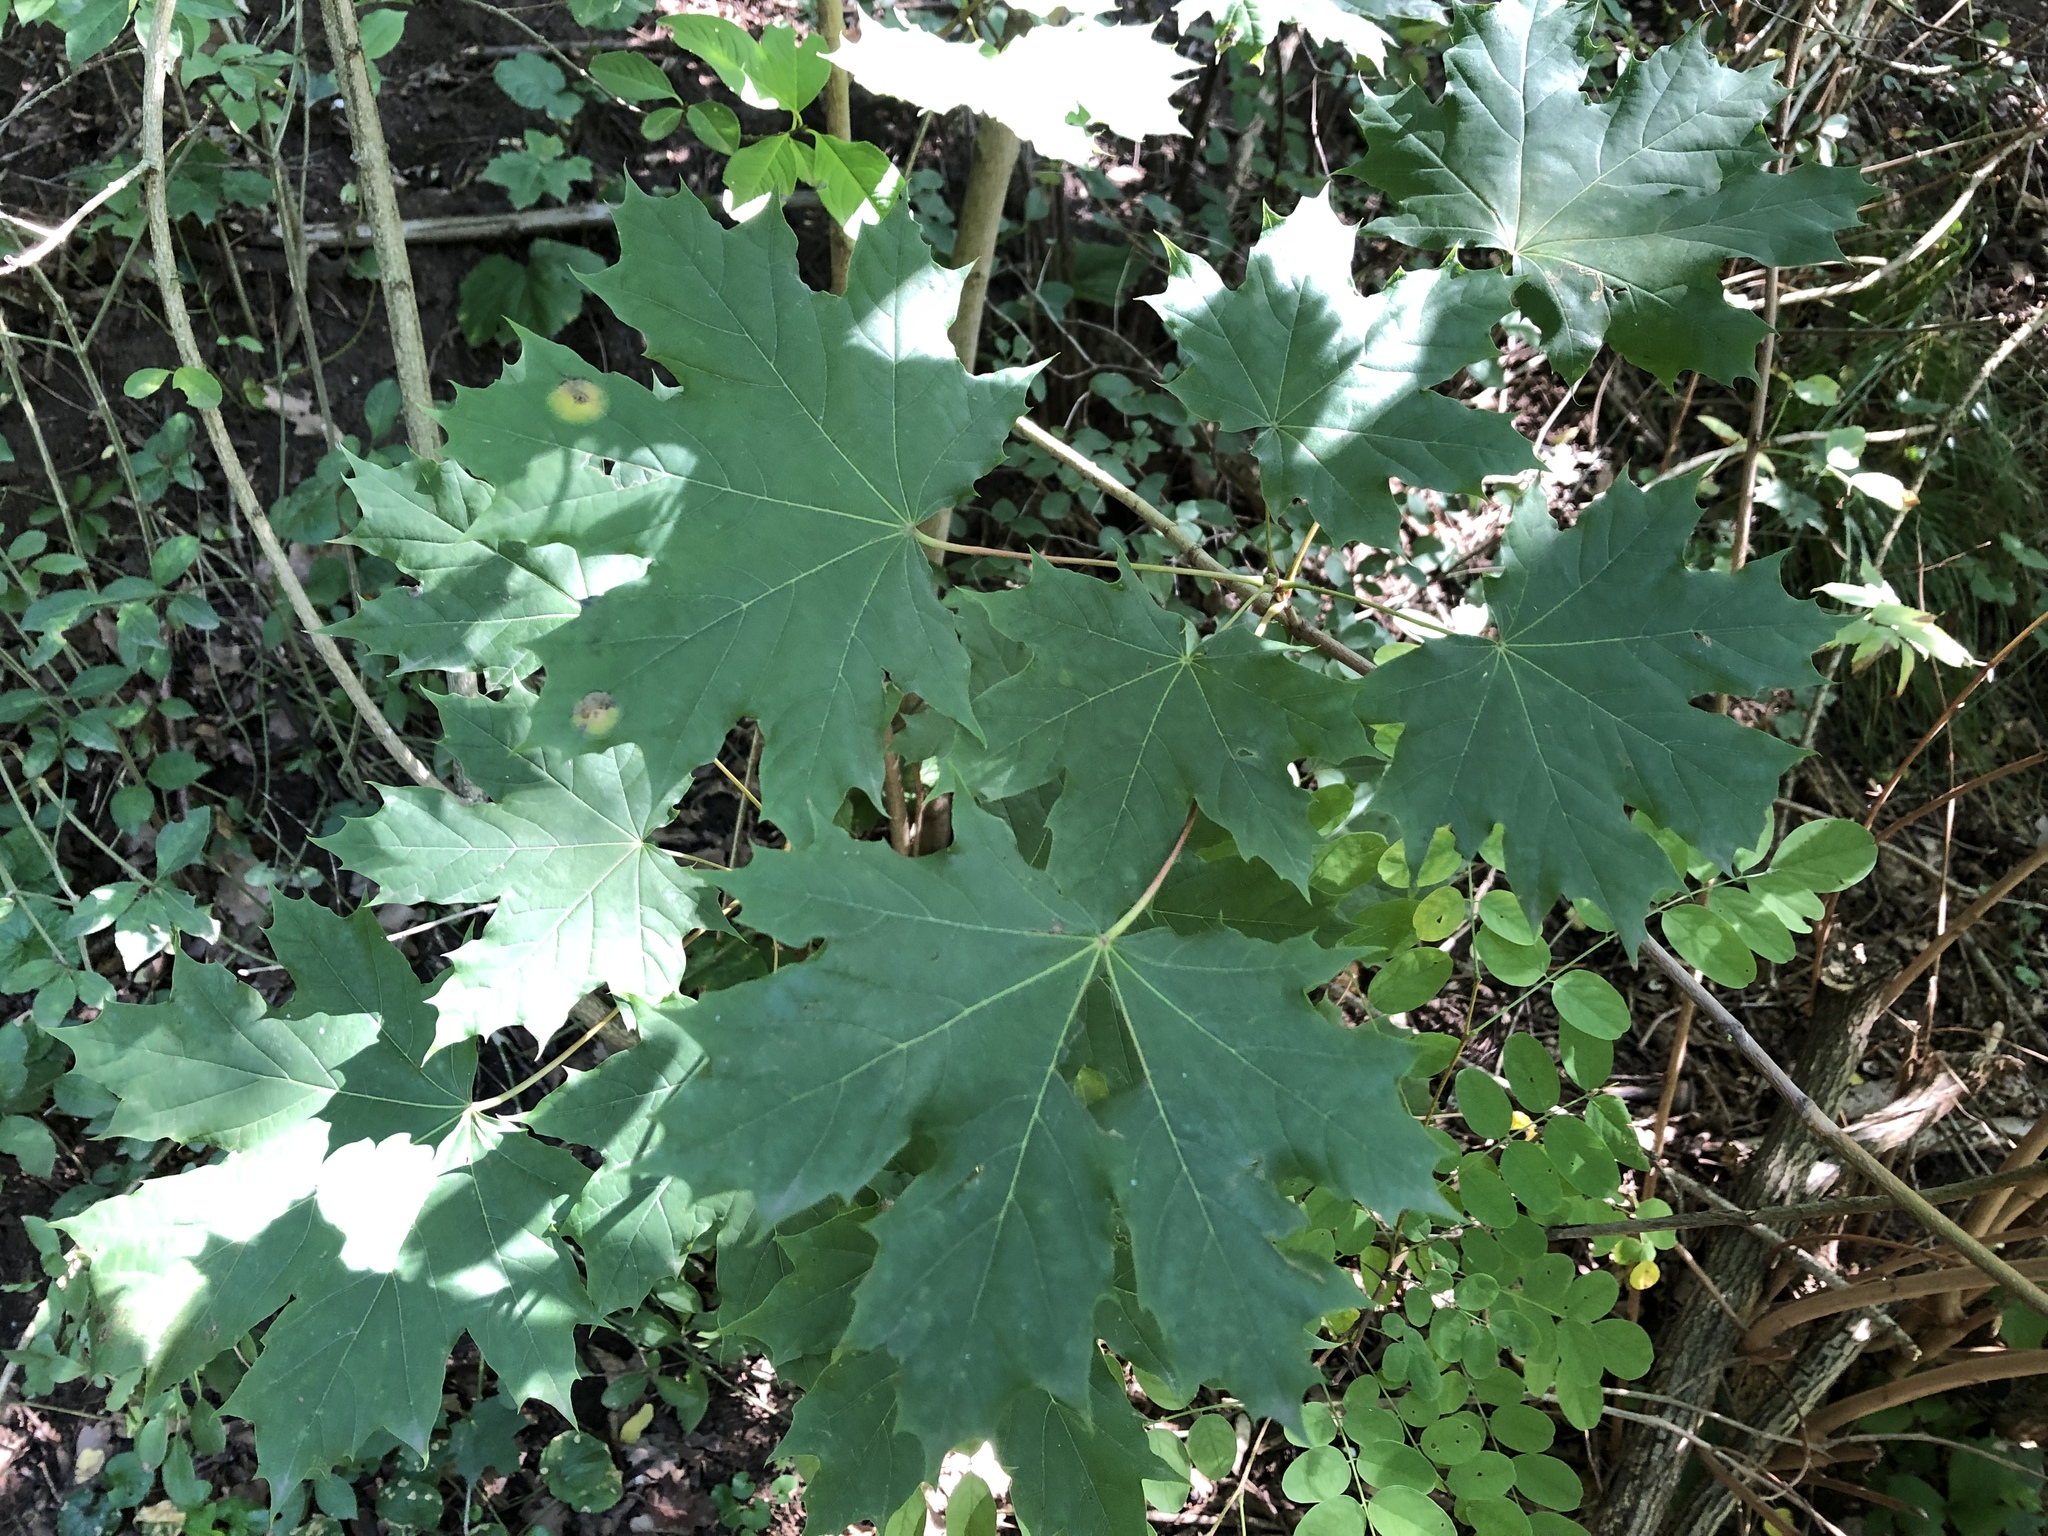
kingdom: Plantae
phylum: Tracheophyta
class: Magnoliopsida
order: Sapindales
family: Sapindaceae
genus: Acer
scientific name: Acer platanoides
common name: Norway maple
